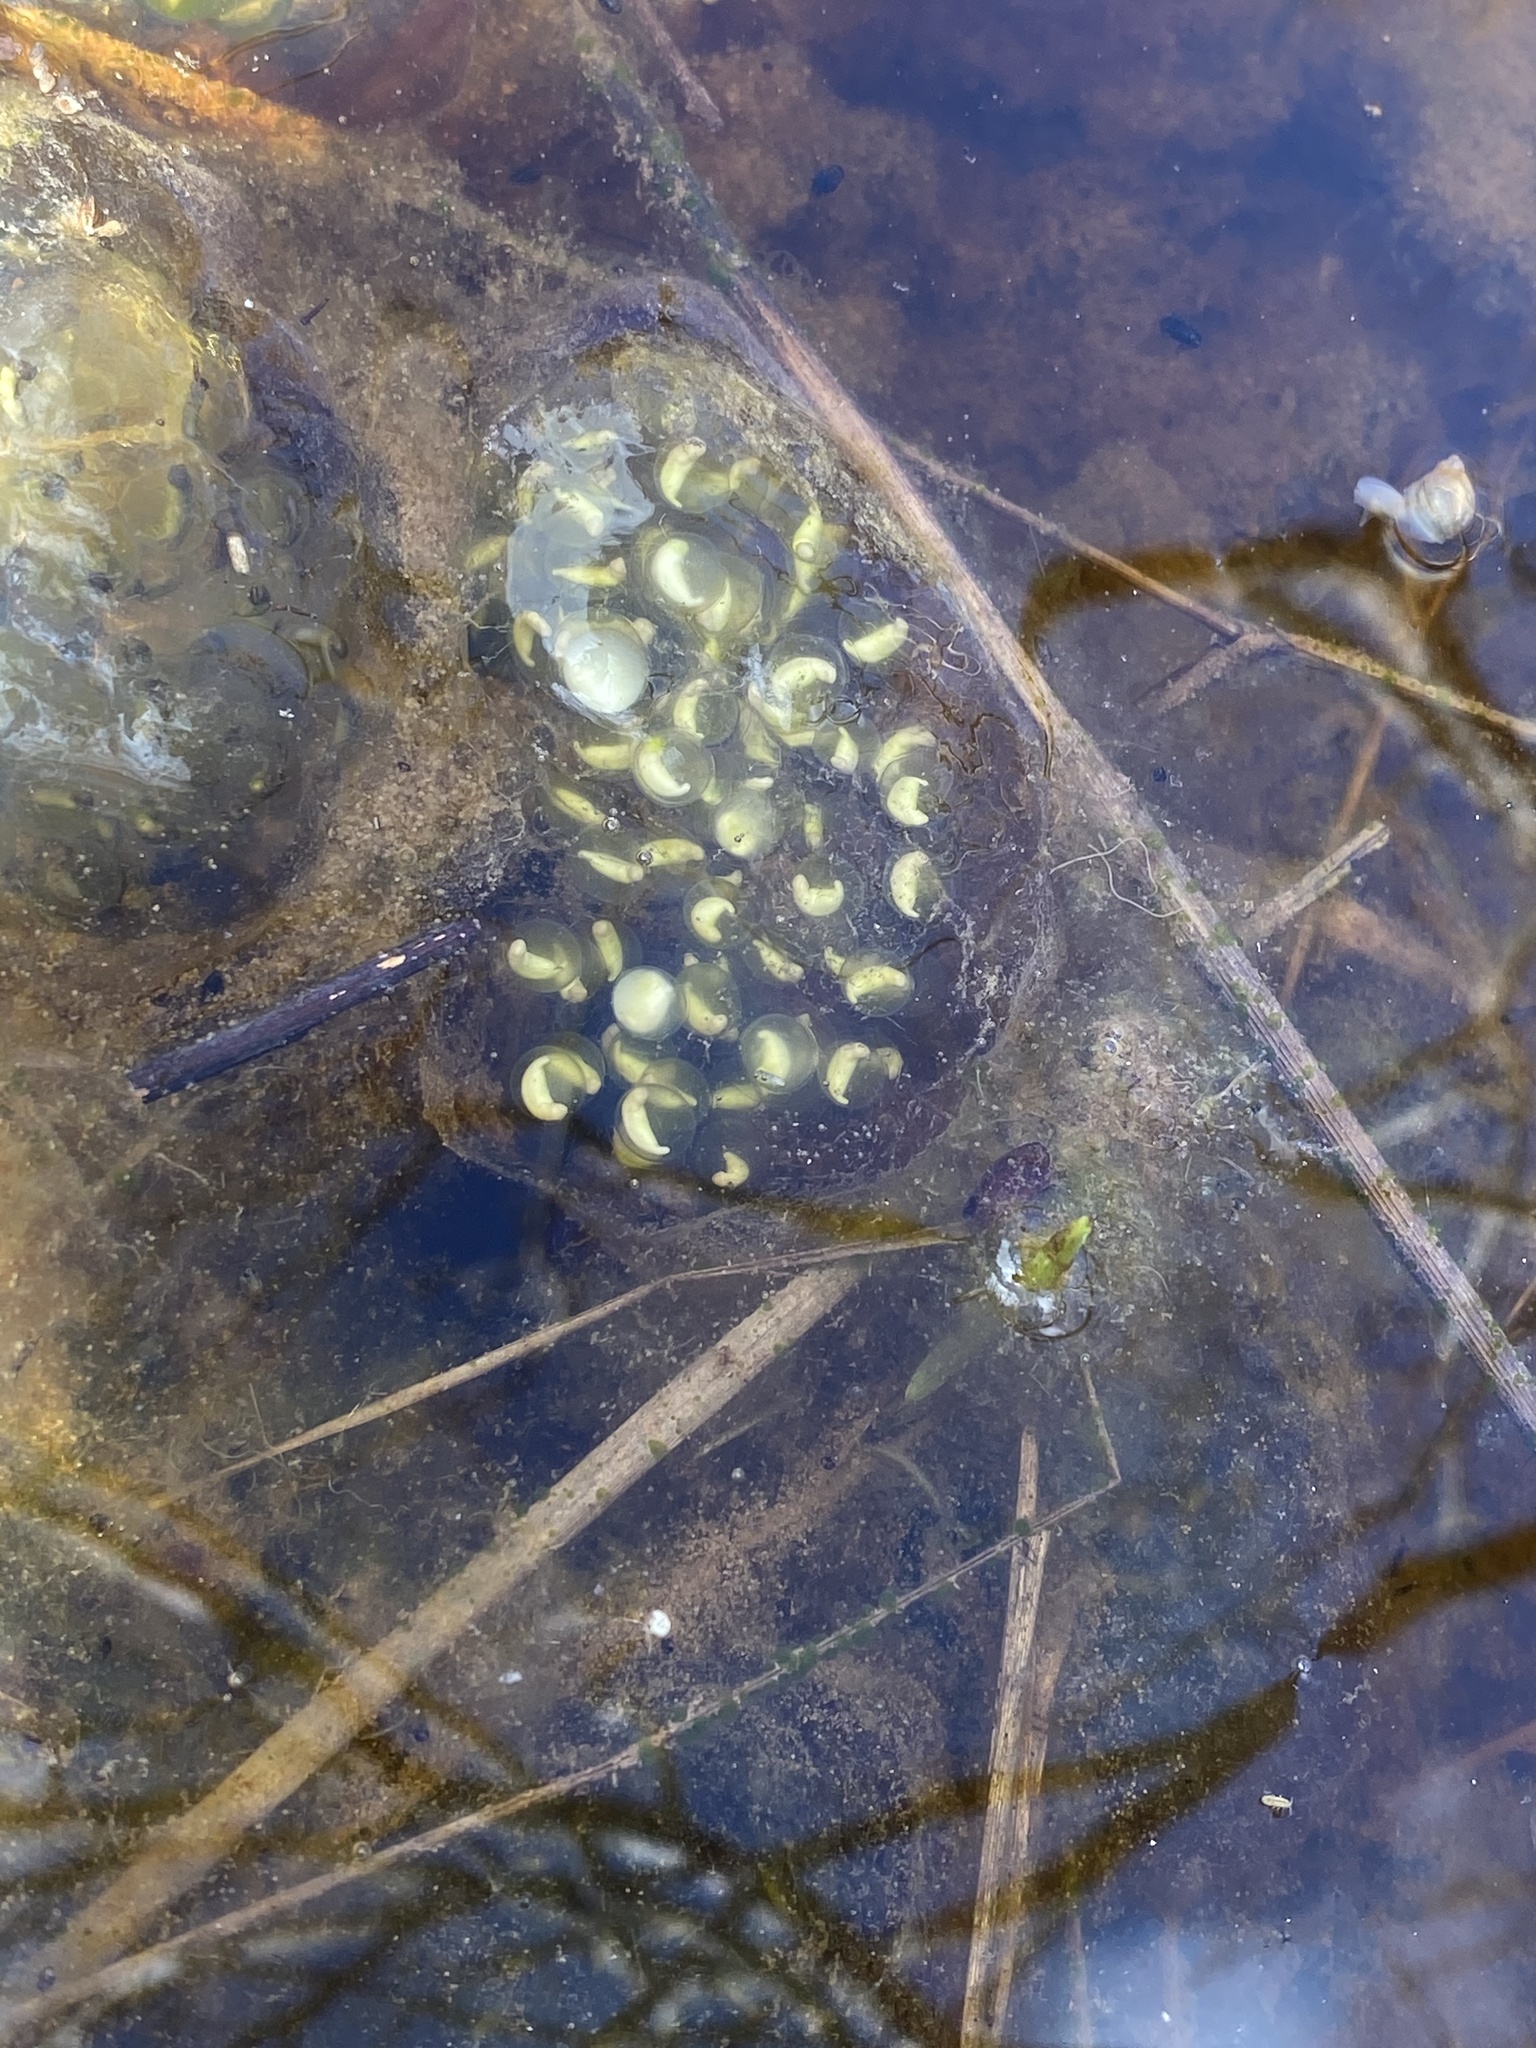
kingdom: Animalia
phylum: Chordata
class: Amphibia
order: Caudata
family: Ambystomatidae
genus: Ambystoma
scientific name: Ambystoma maculatum
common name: Spotted salamander
